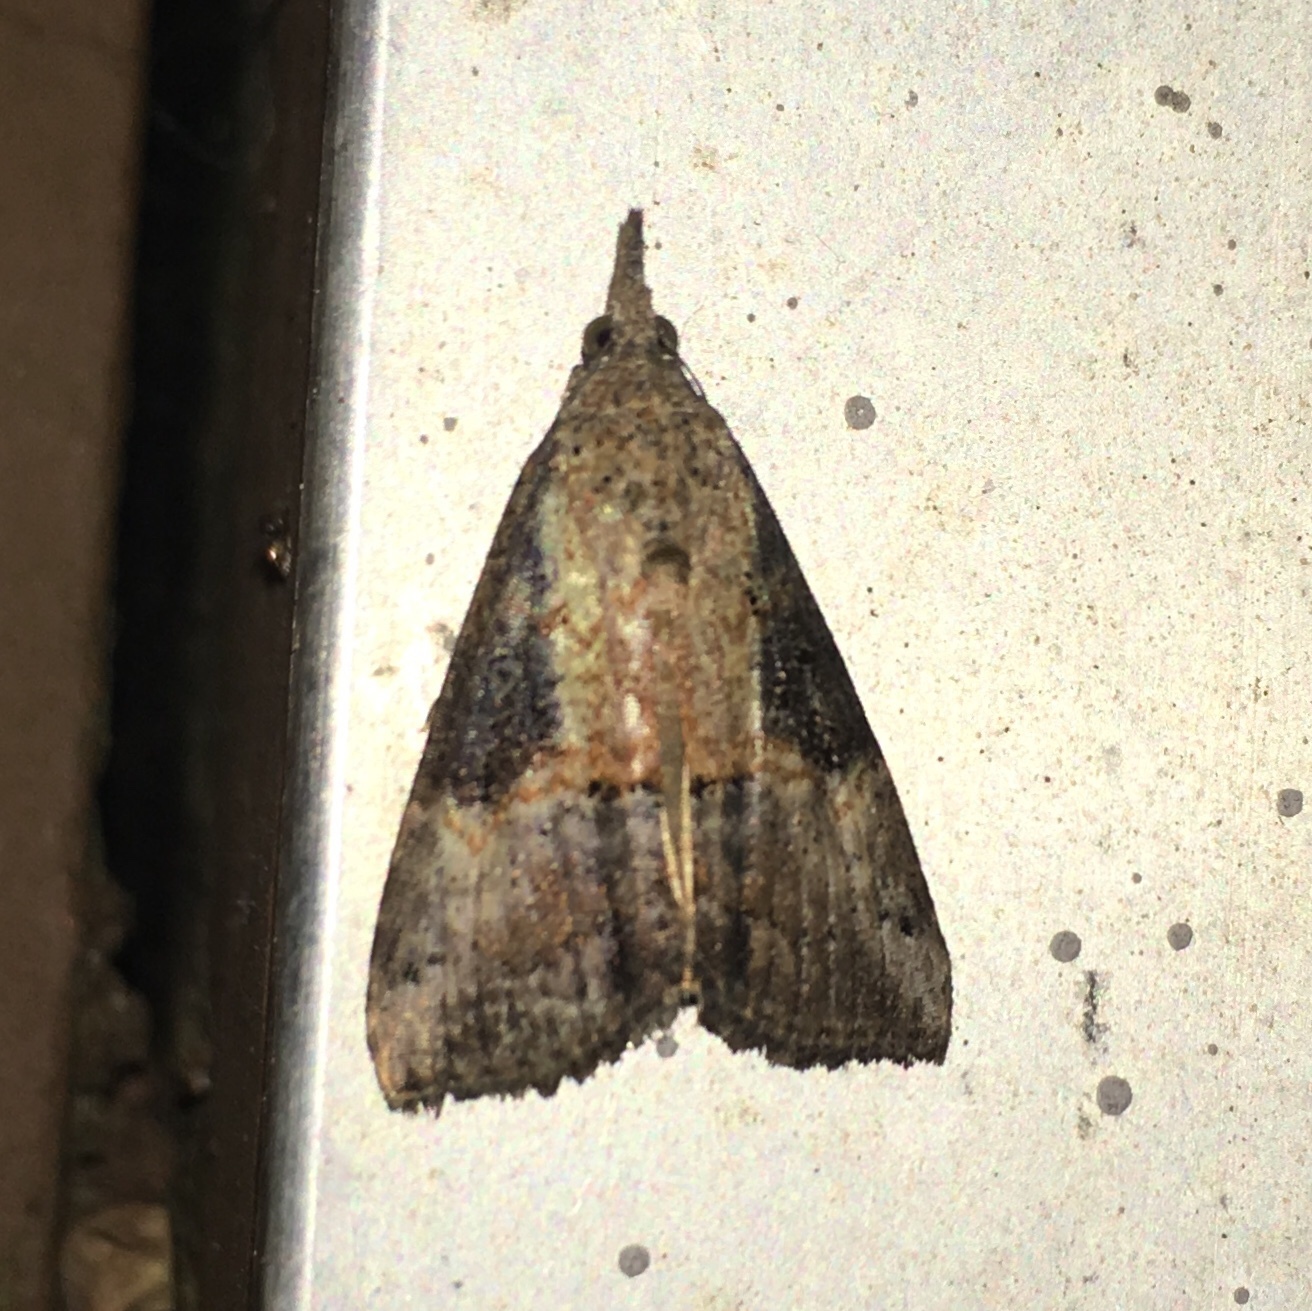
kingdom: Animalia
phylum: Arthropoda
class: Insecta
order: Lepidoptera
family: Erebidae
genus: Hypena
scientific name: Hypena scabra
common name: Green cloverworm
